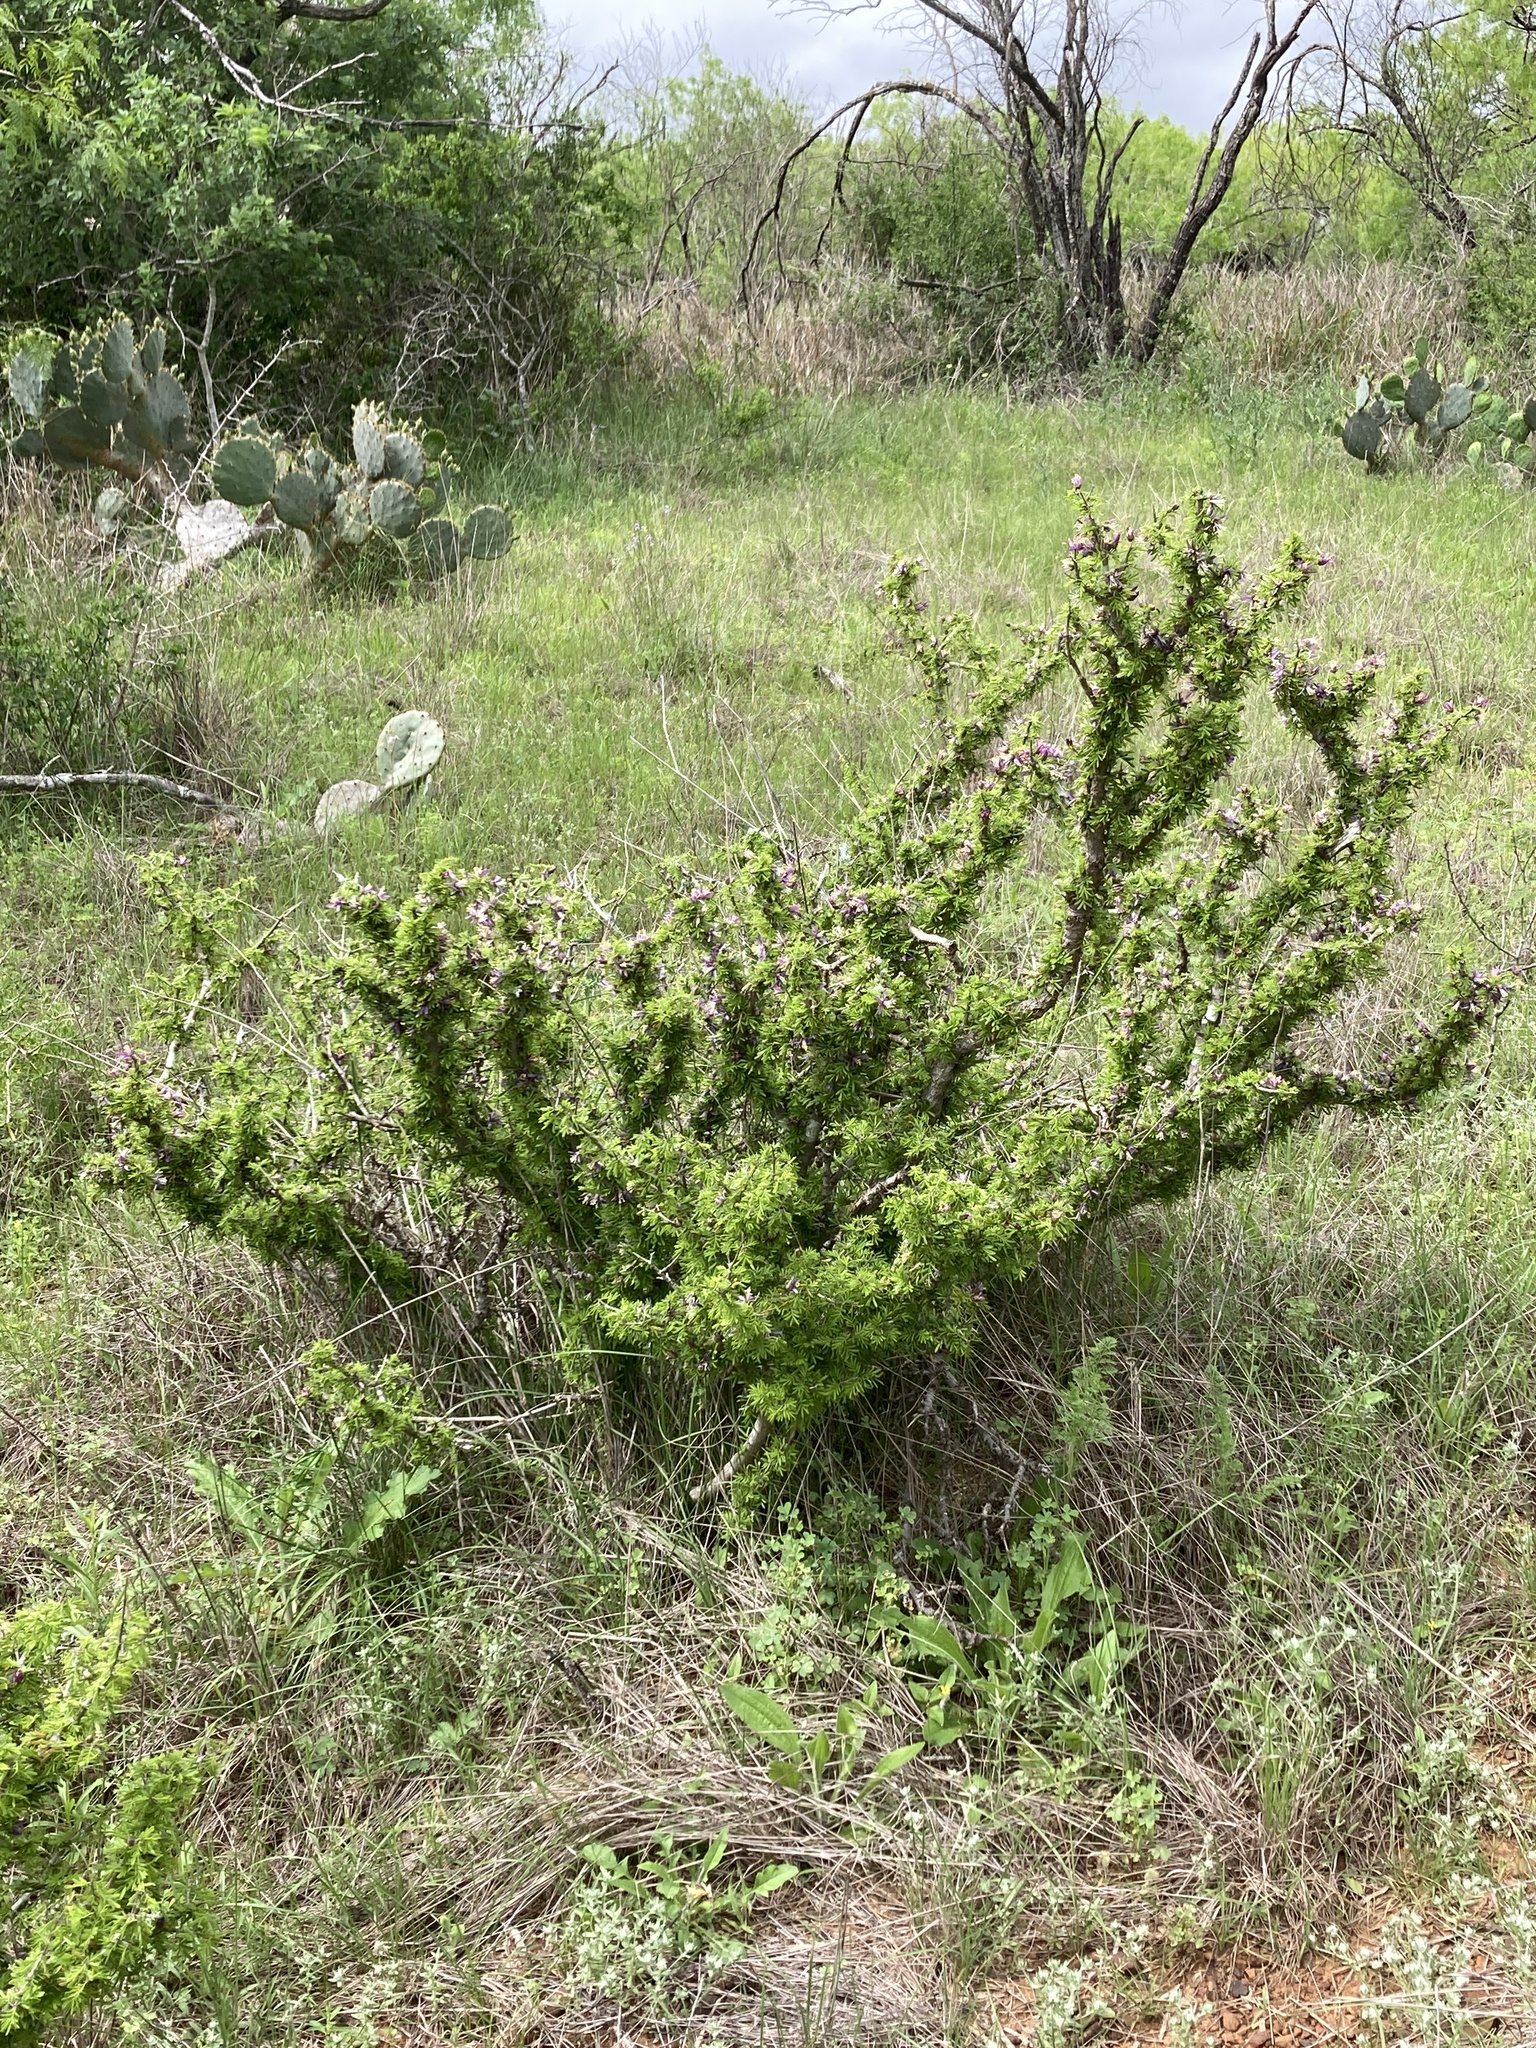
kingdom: Plantae
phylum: Tracheophyta
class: Magnoliopsida
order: Zygophyllales
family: Zygophyllaceae
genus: Porlieria
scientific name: Porlieria angustifolia
